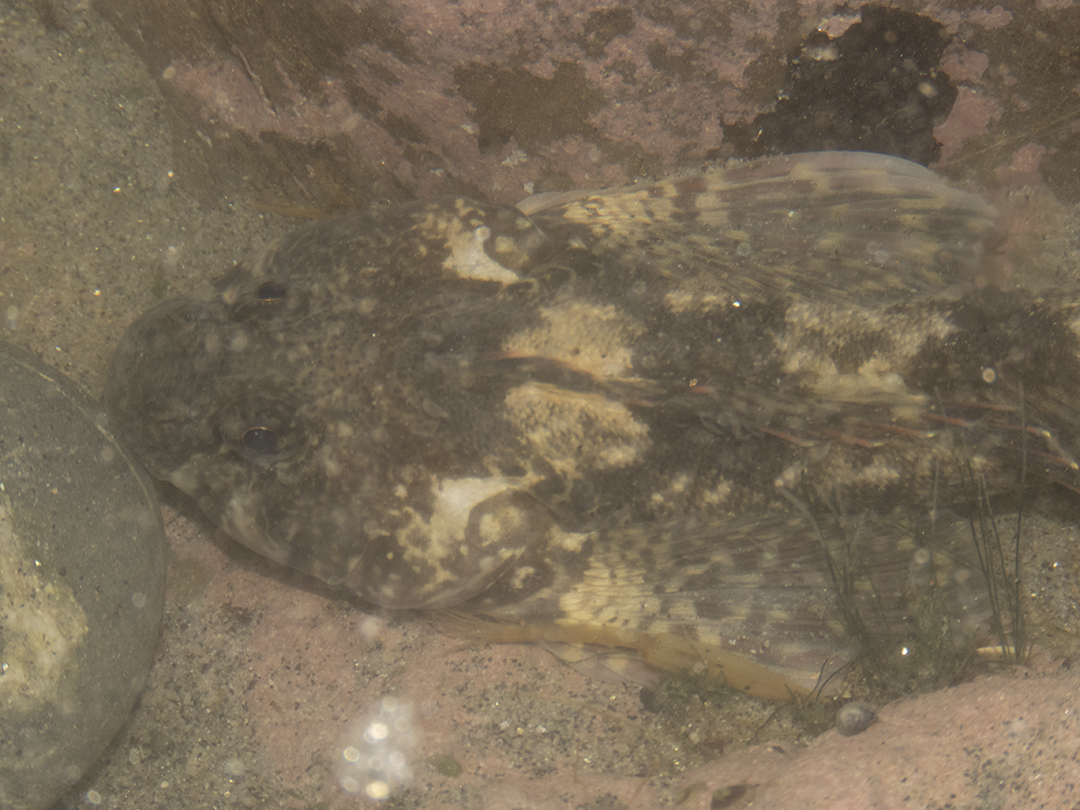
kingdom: Animalia
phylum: Chordata
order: Perciformes
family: Tripterygiidae
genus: Blennodon
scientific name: Blennodon dorsalis
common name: Giant triplefin
